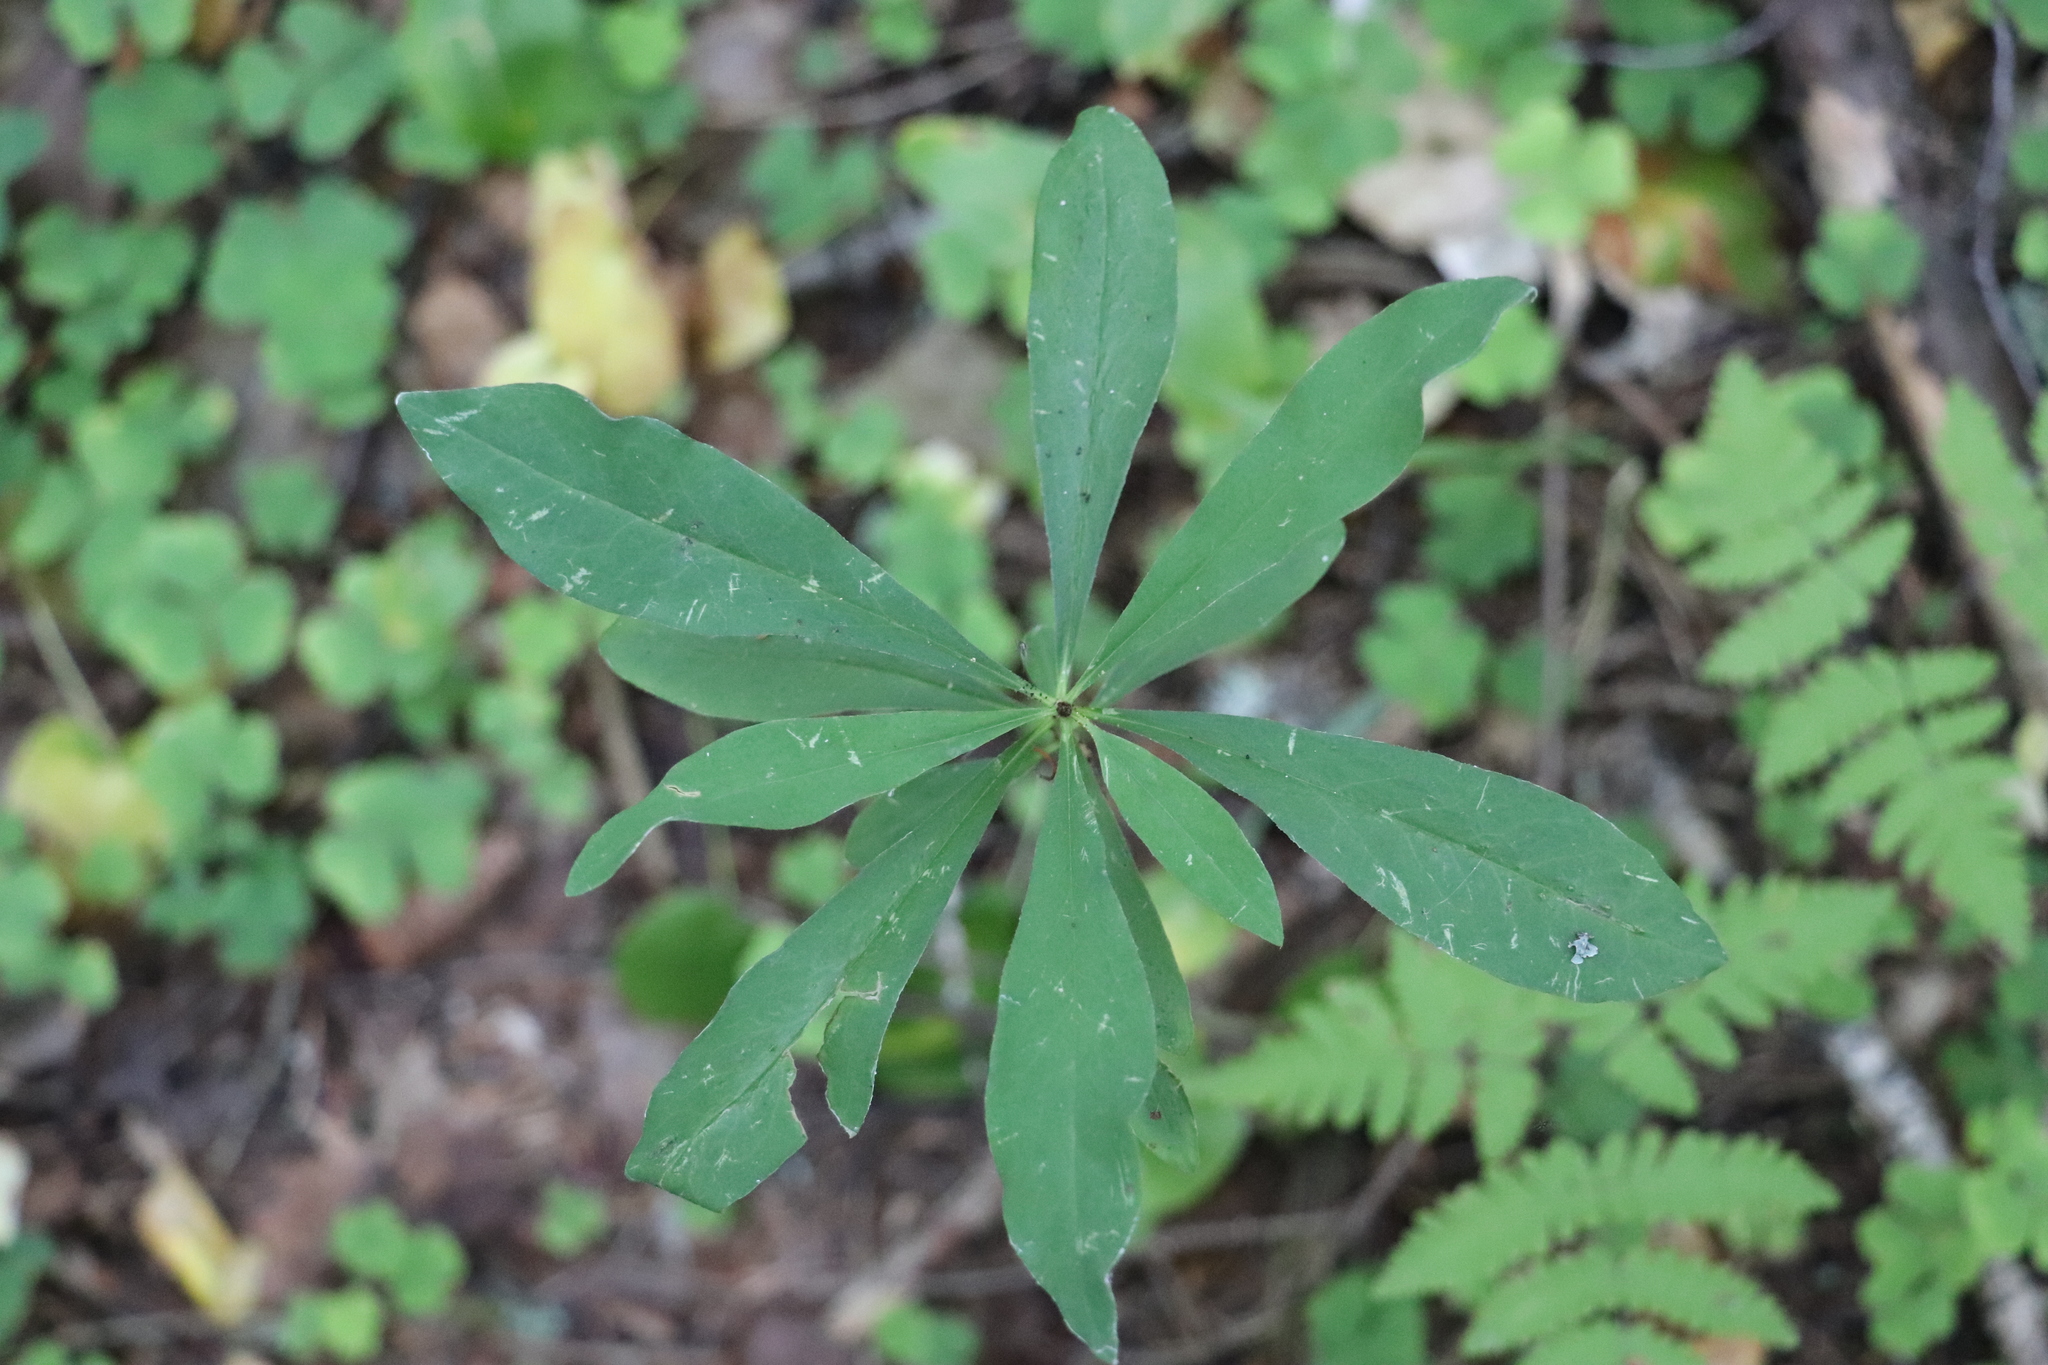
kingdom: Plantae
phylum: Tracheophyta
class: Magnoliopsida
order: Malvales
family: Thymelaeaceae
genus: Daphne
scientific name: Daphne mezereum
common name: Mezereon
